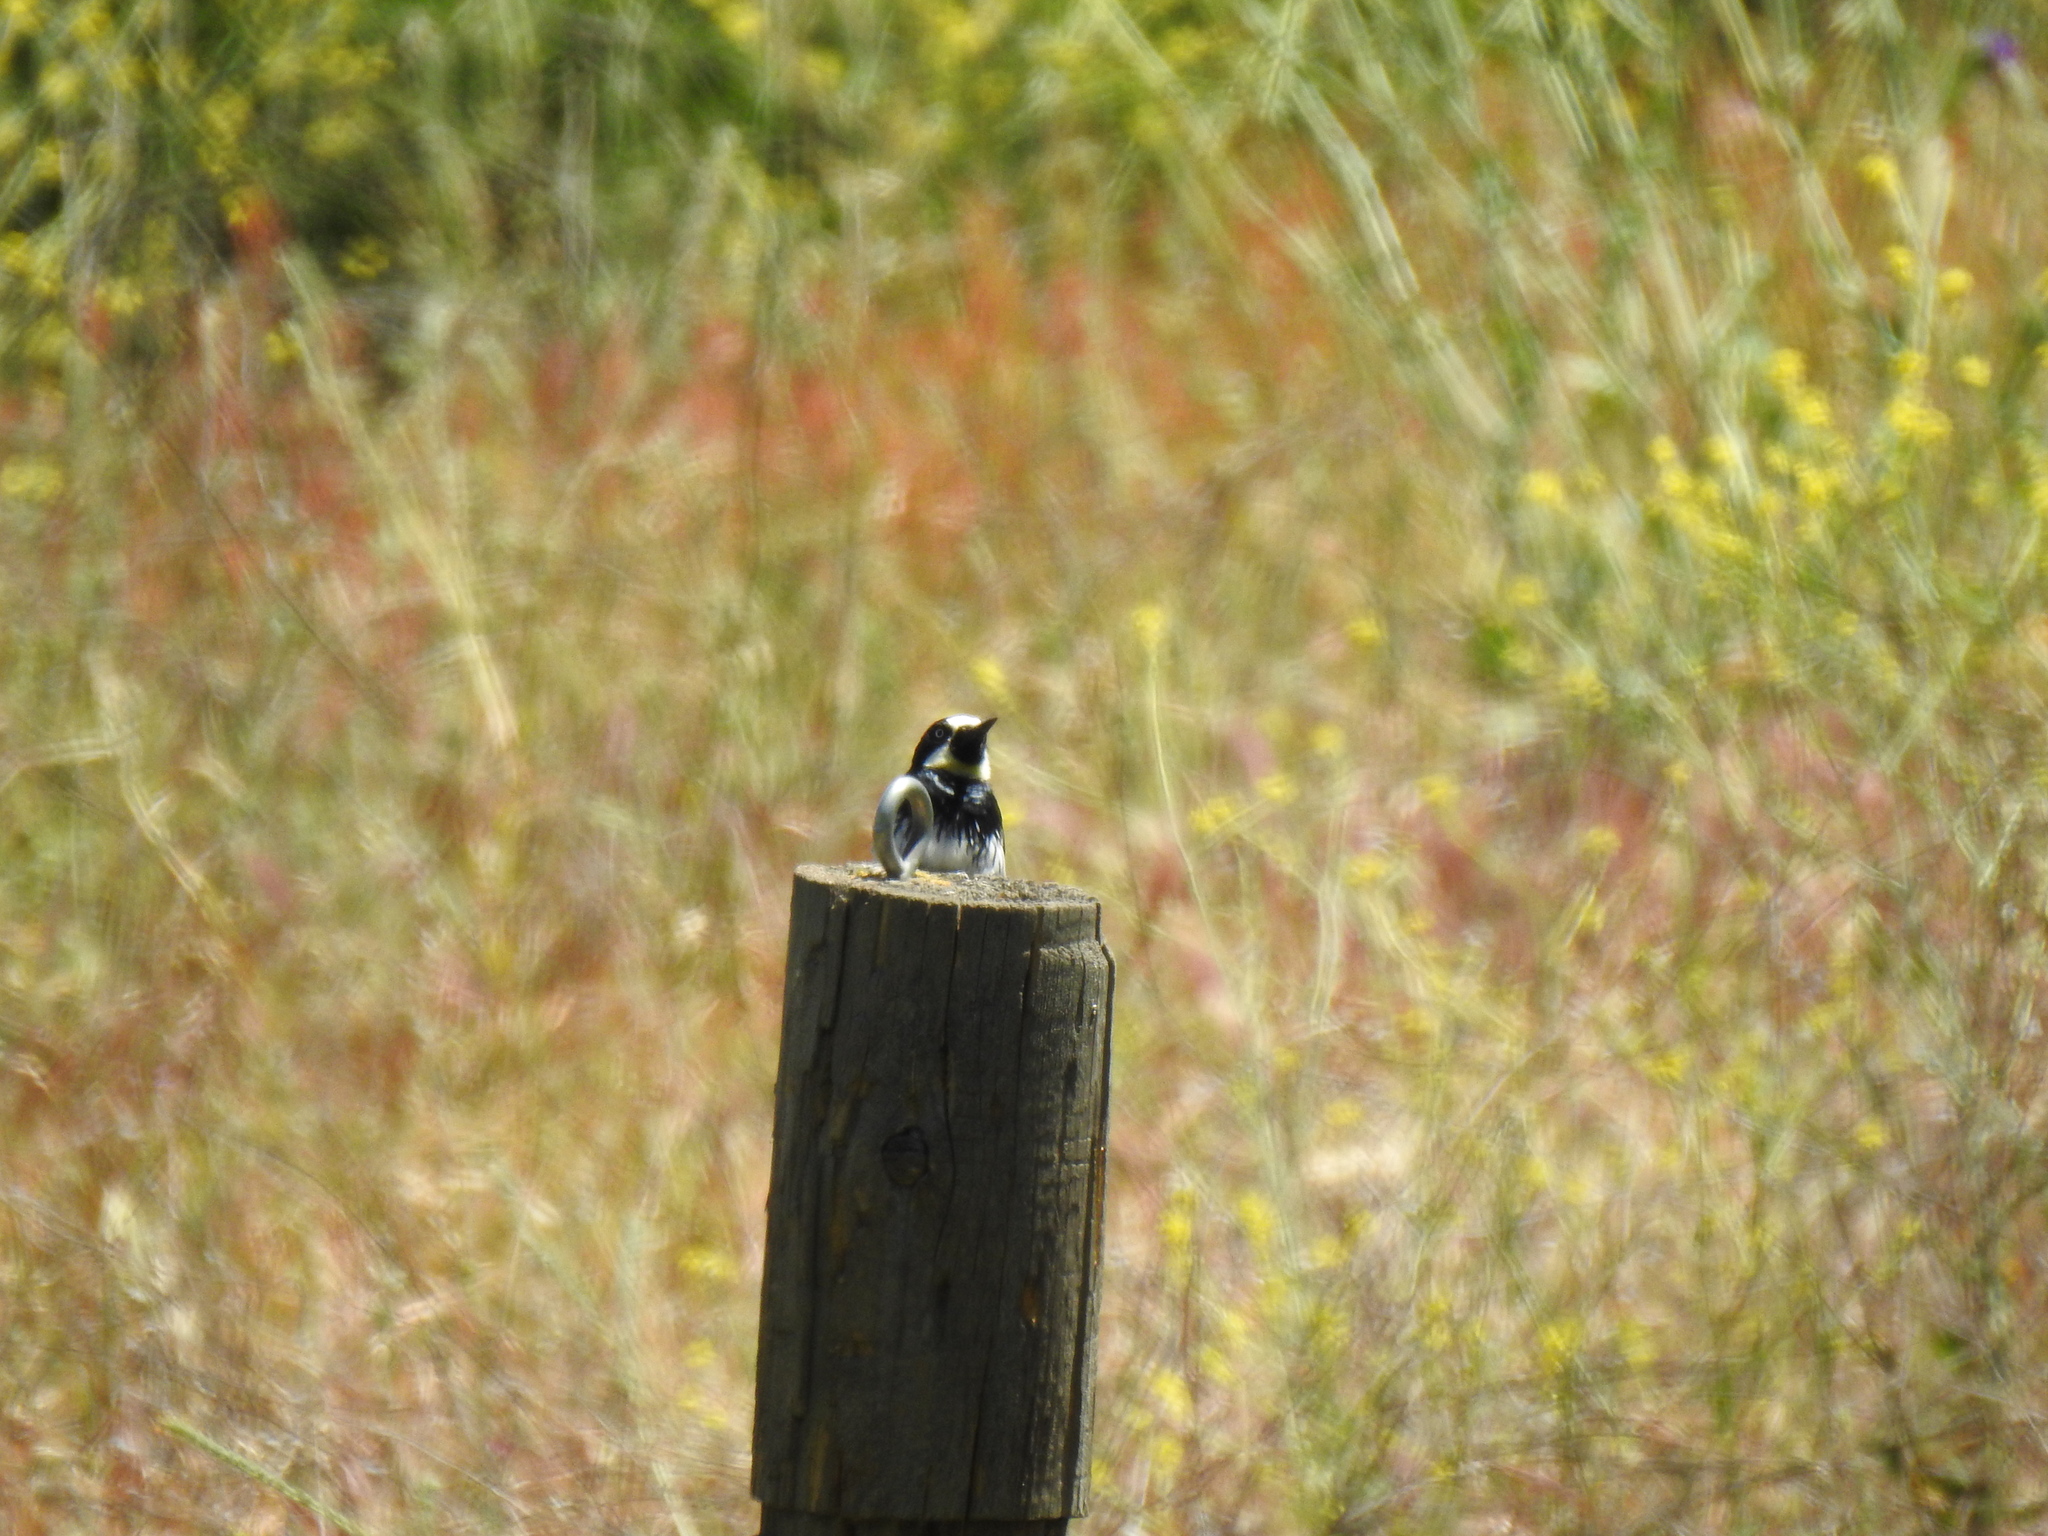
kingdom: Animalia
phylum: Chordata
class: Aves
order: Piciformes
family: Picidae
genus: Melanerpes
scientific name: Melanerpes formicivorus
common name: Acorn woodpecker
